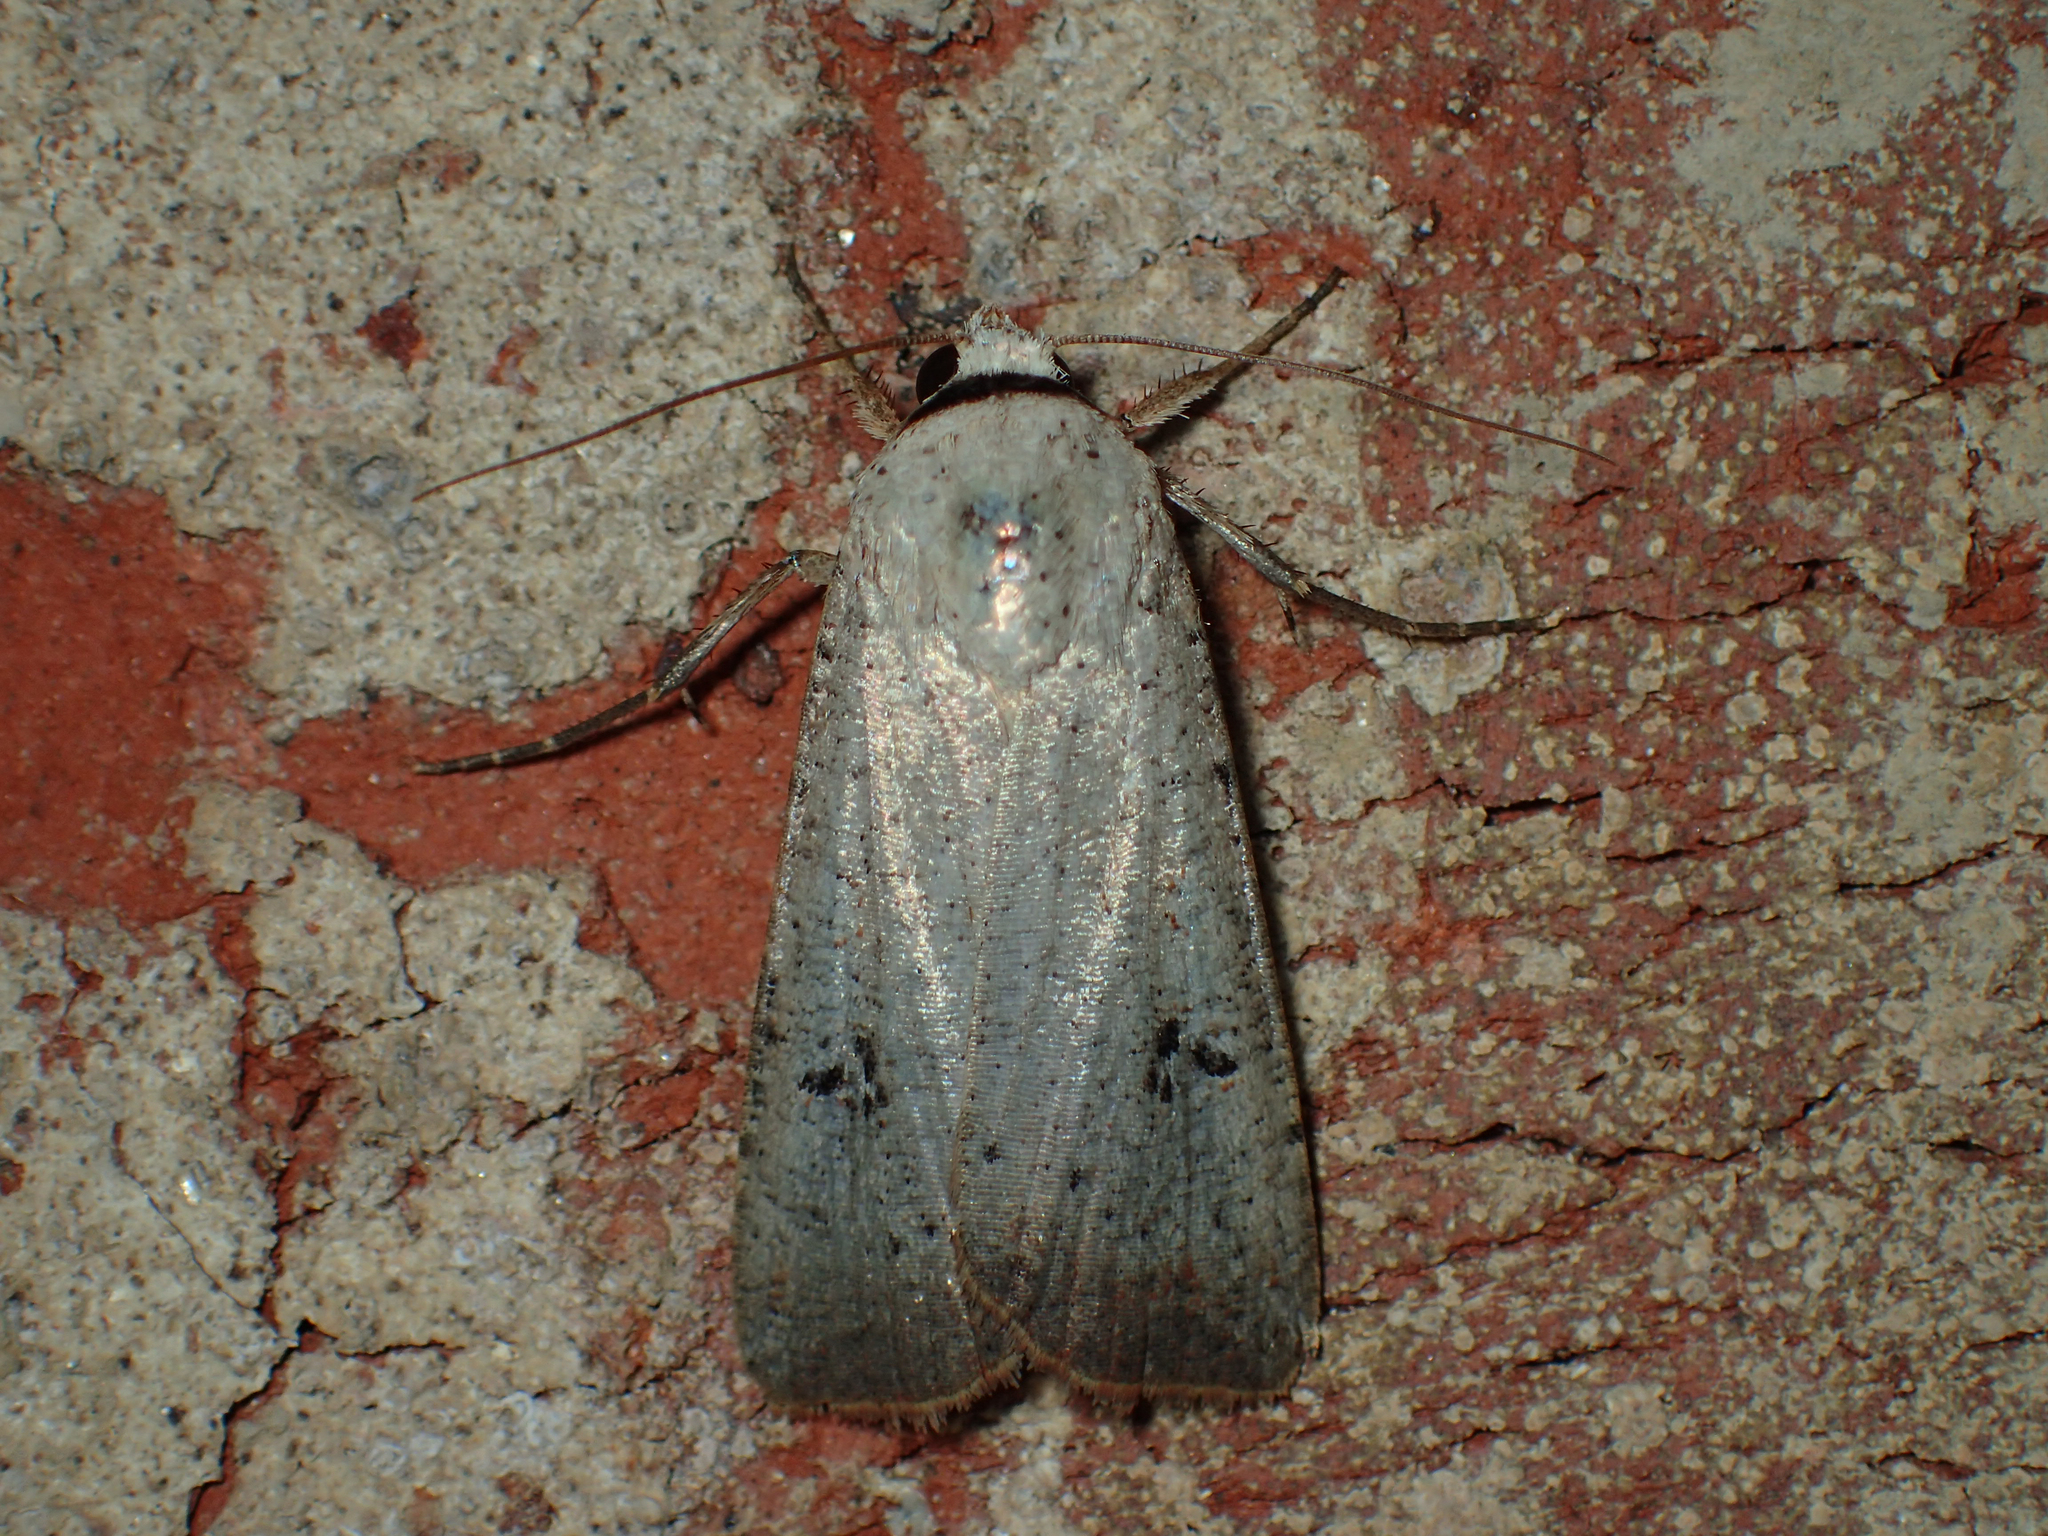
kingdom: Animalia
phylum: Arthropoda
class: Insecta
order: Lepidoptera
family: Noctuidae
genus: Anicla
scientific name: Anicla infecta
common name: Green cutworm
